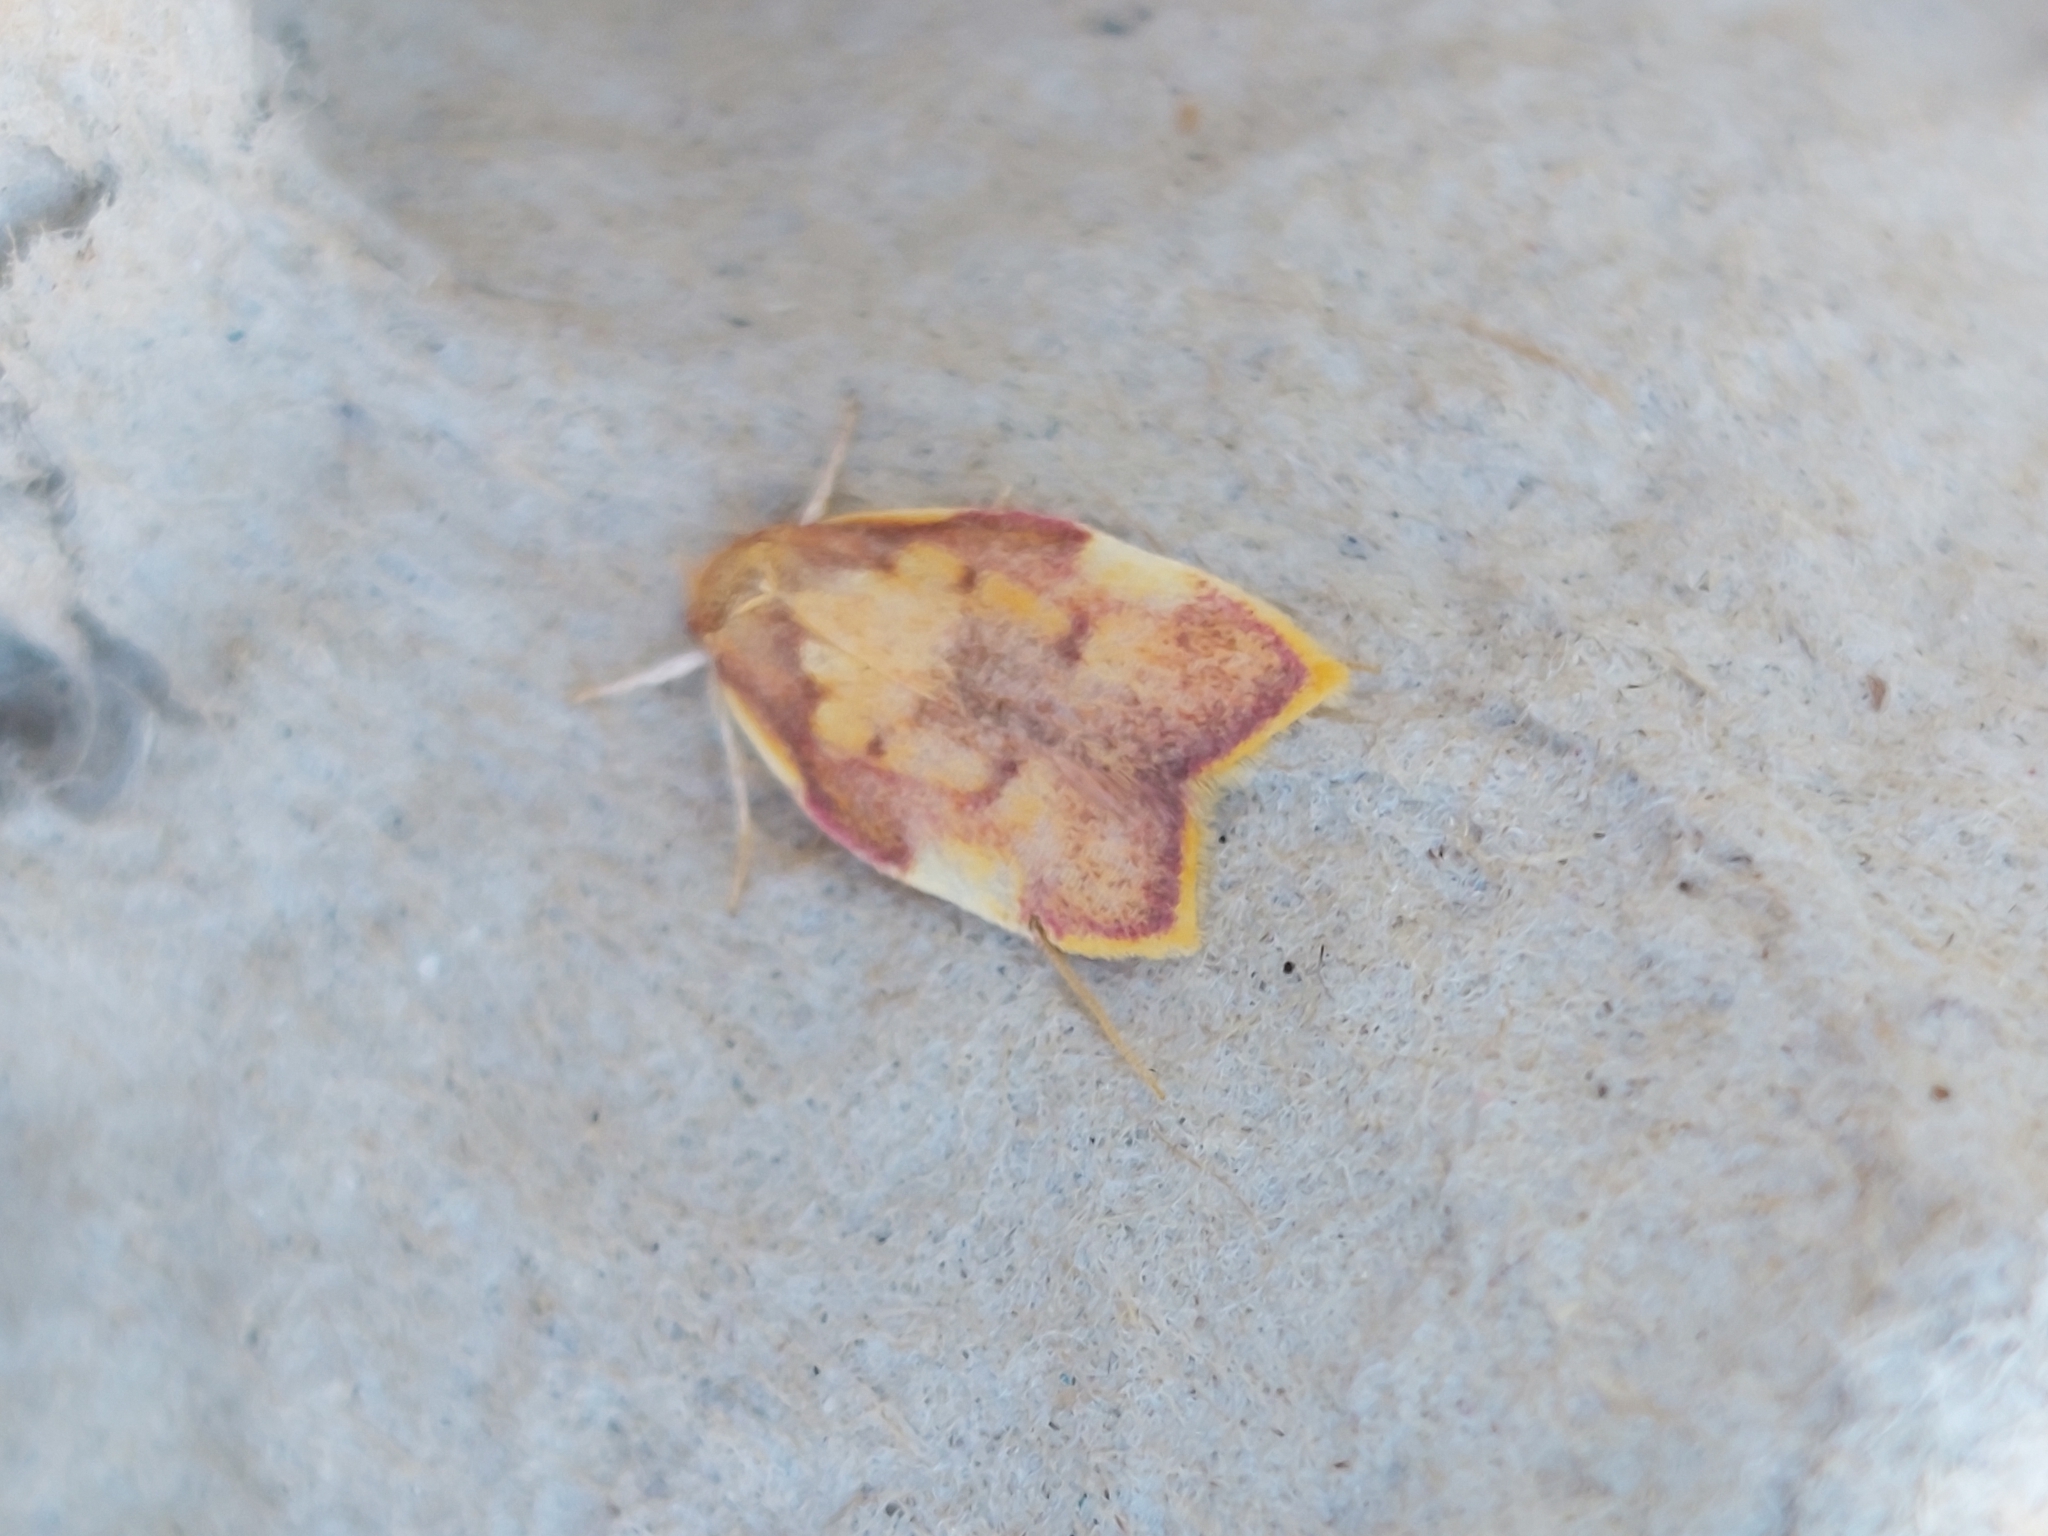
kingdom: Animalia
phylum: Arthropoda
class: Insecta
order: Lepidoptera
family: Peleopodidae
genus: Carcina
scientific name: Carcina quercana
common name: Moth
